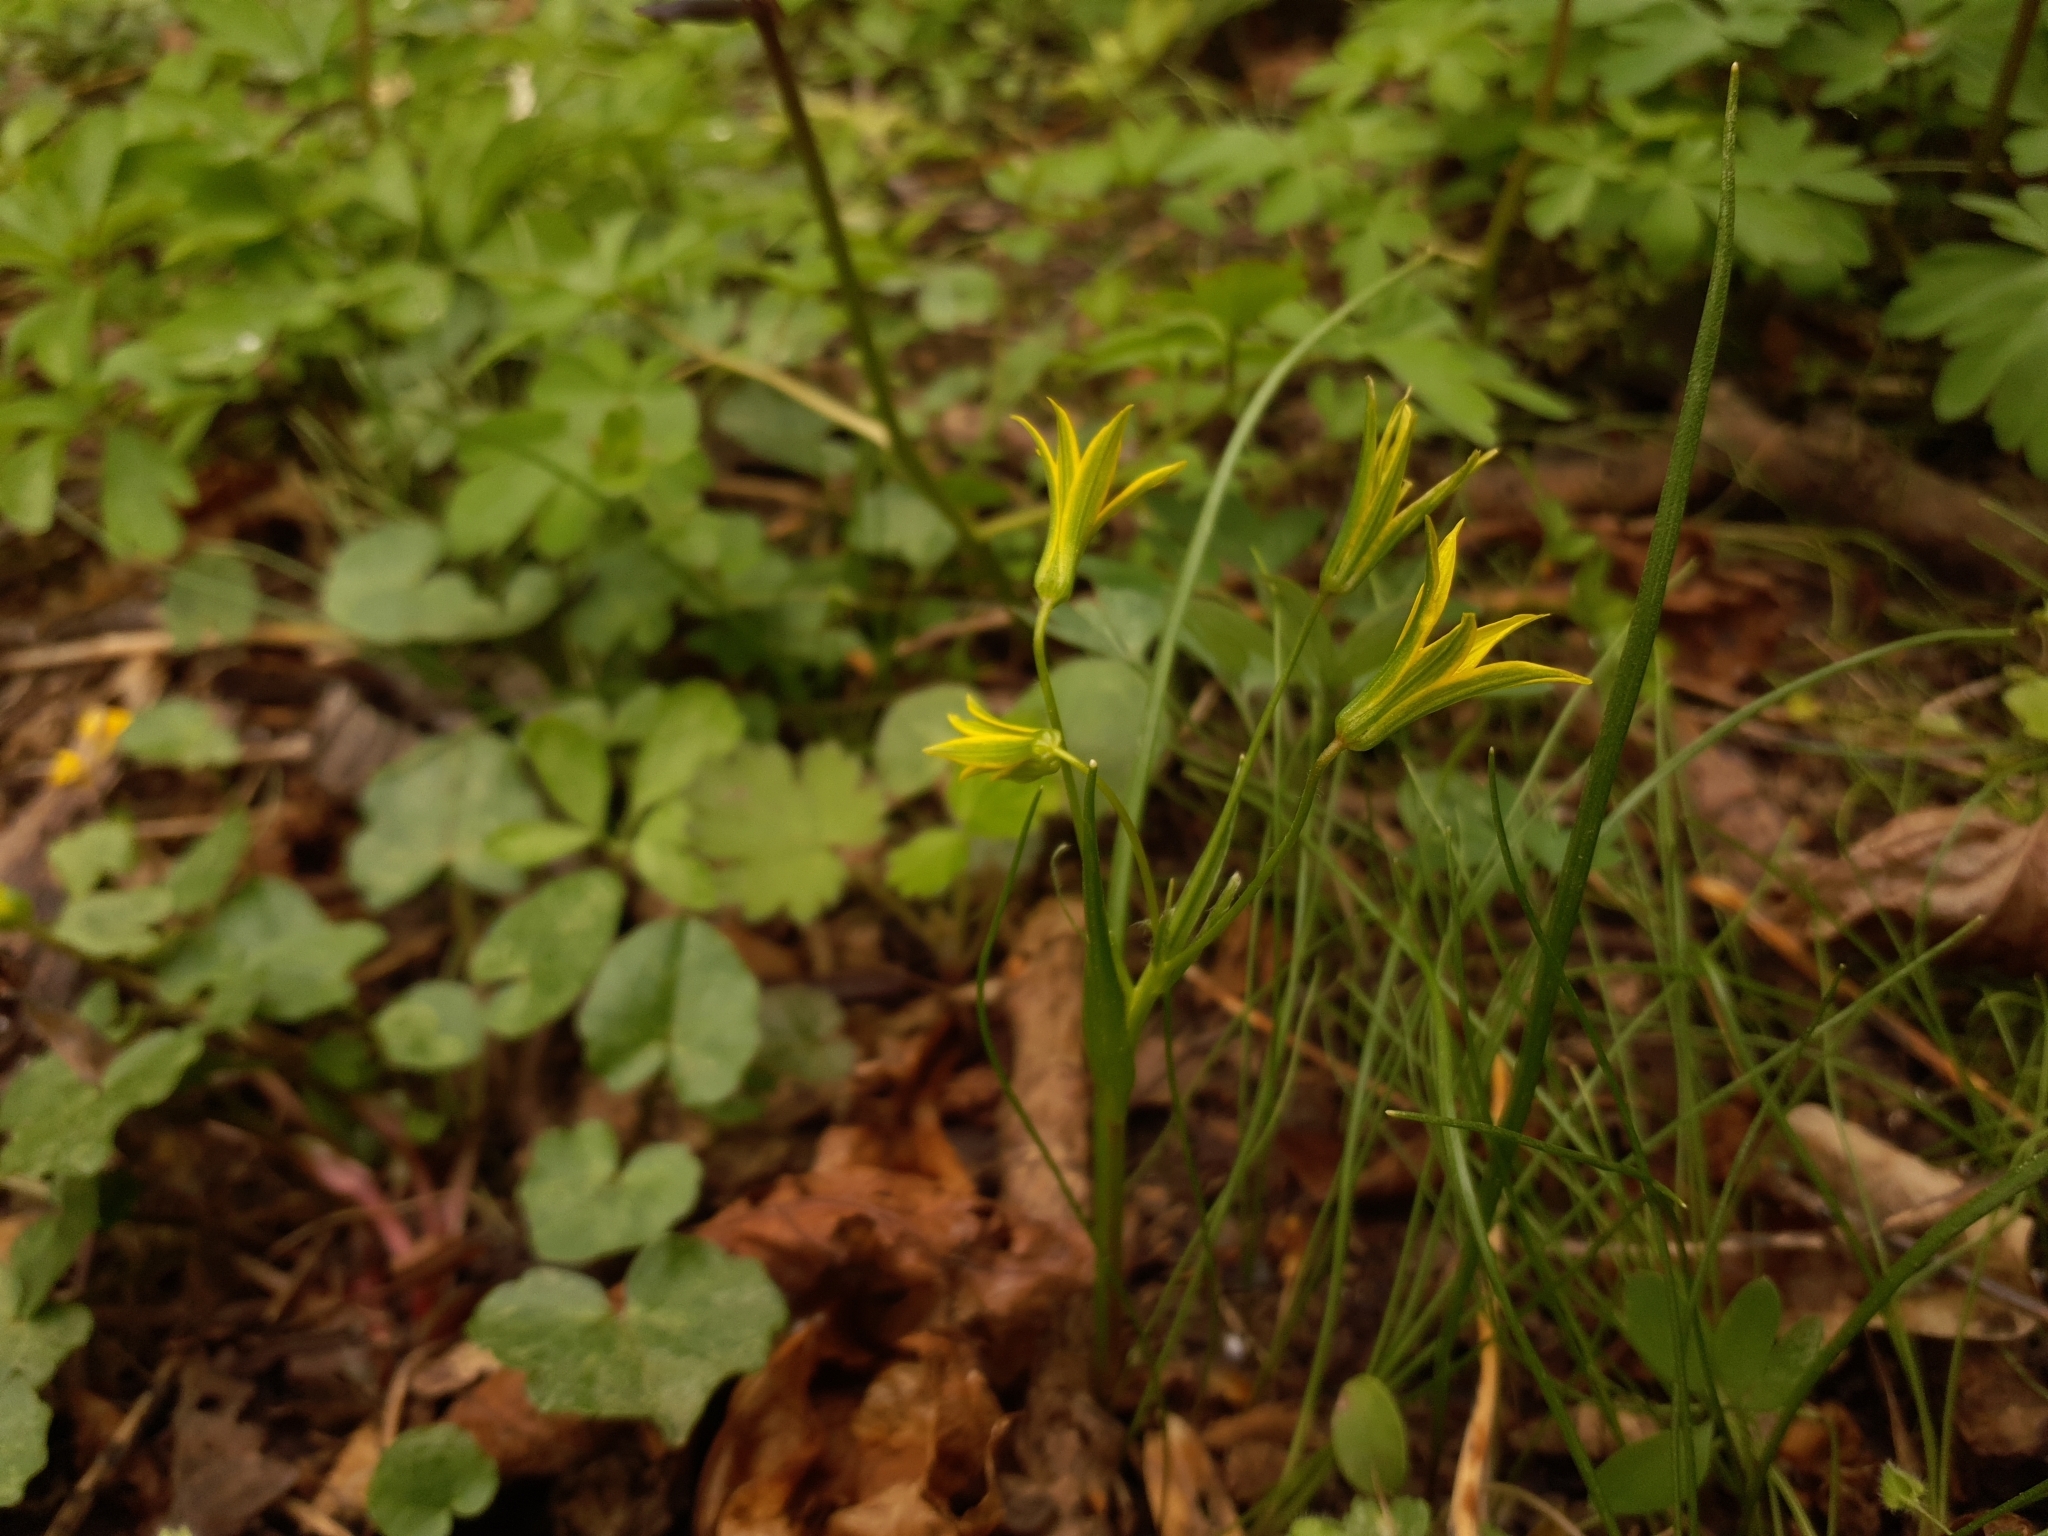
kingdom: Plantae
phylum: Tracheophyta
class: Liliopsida
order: Liliales
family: Liliaceae
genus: Gagea
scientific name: Gagea minima
